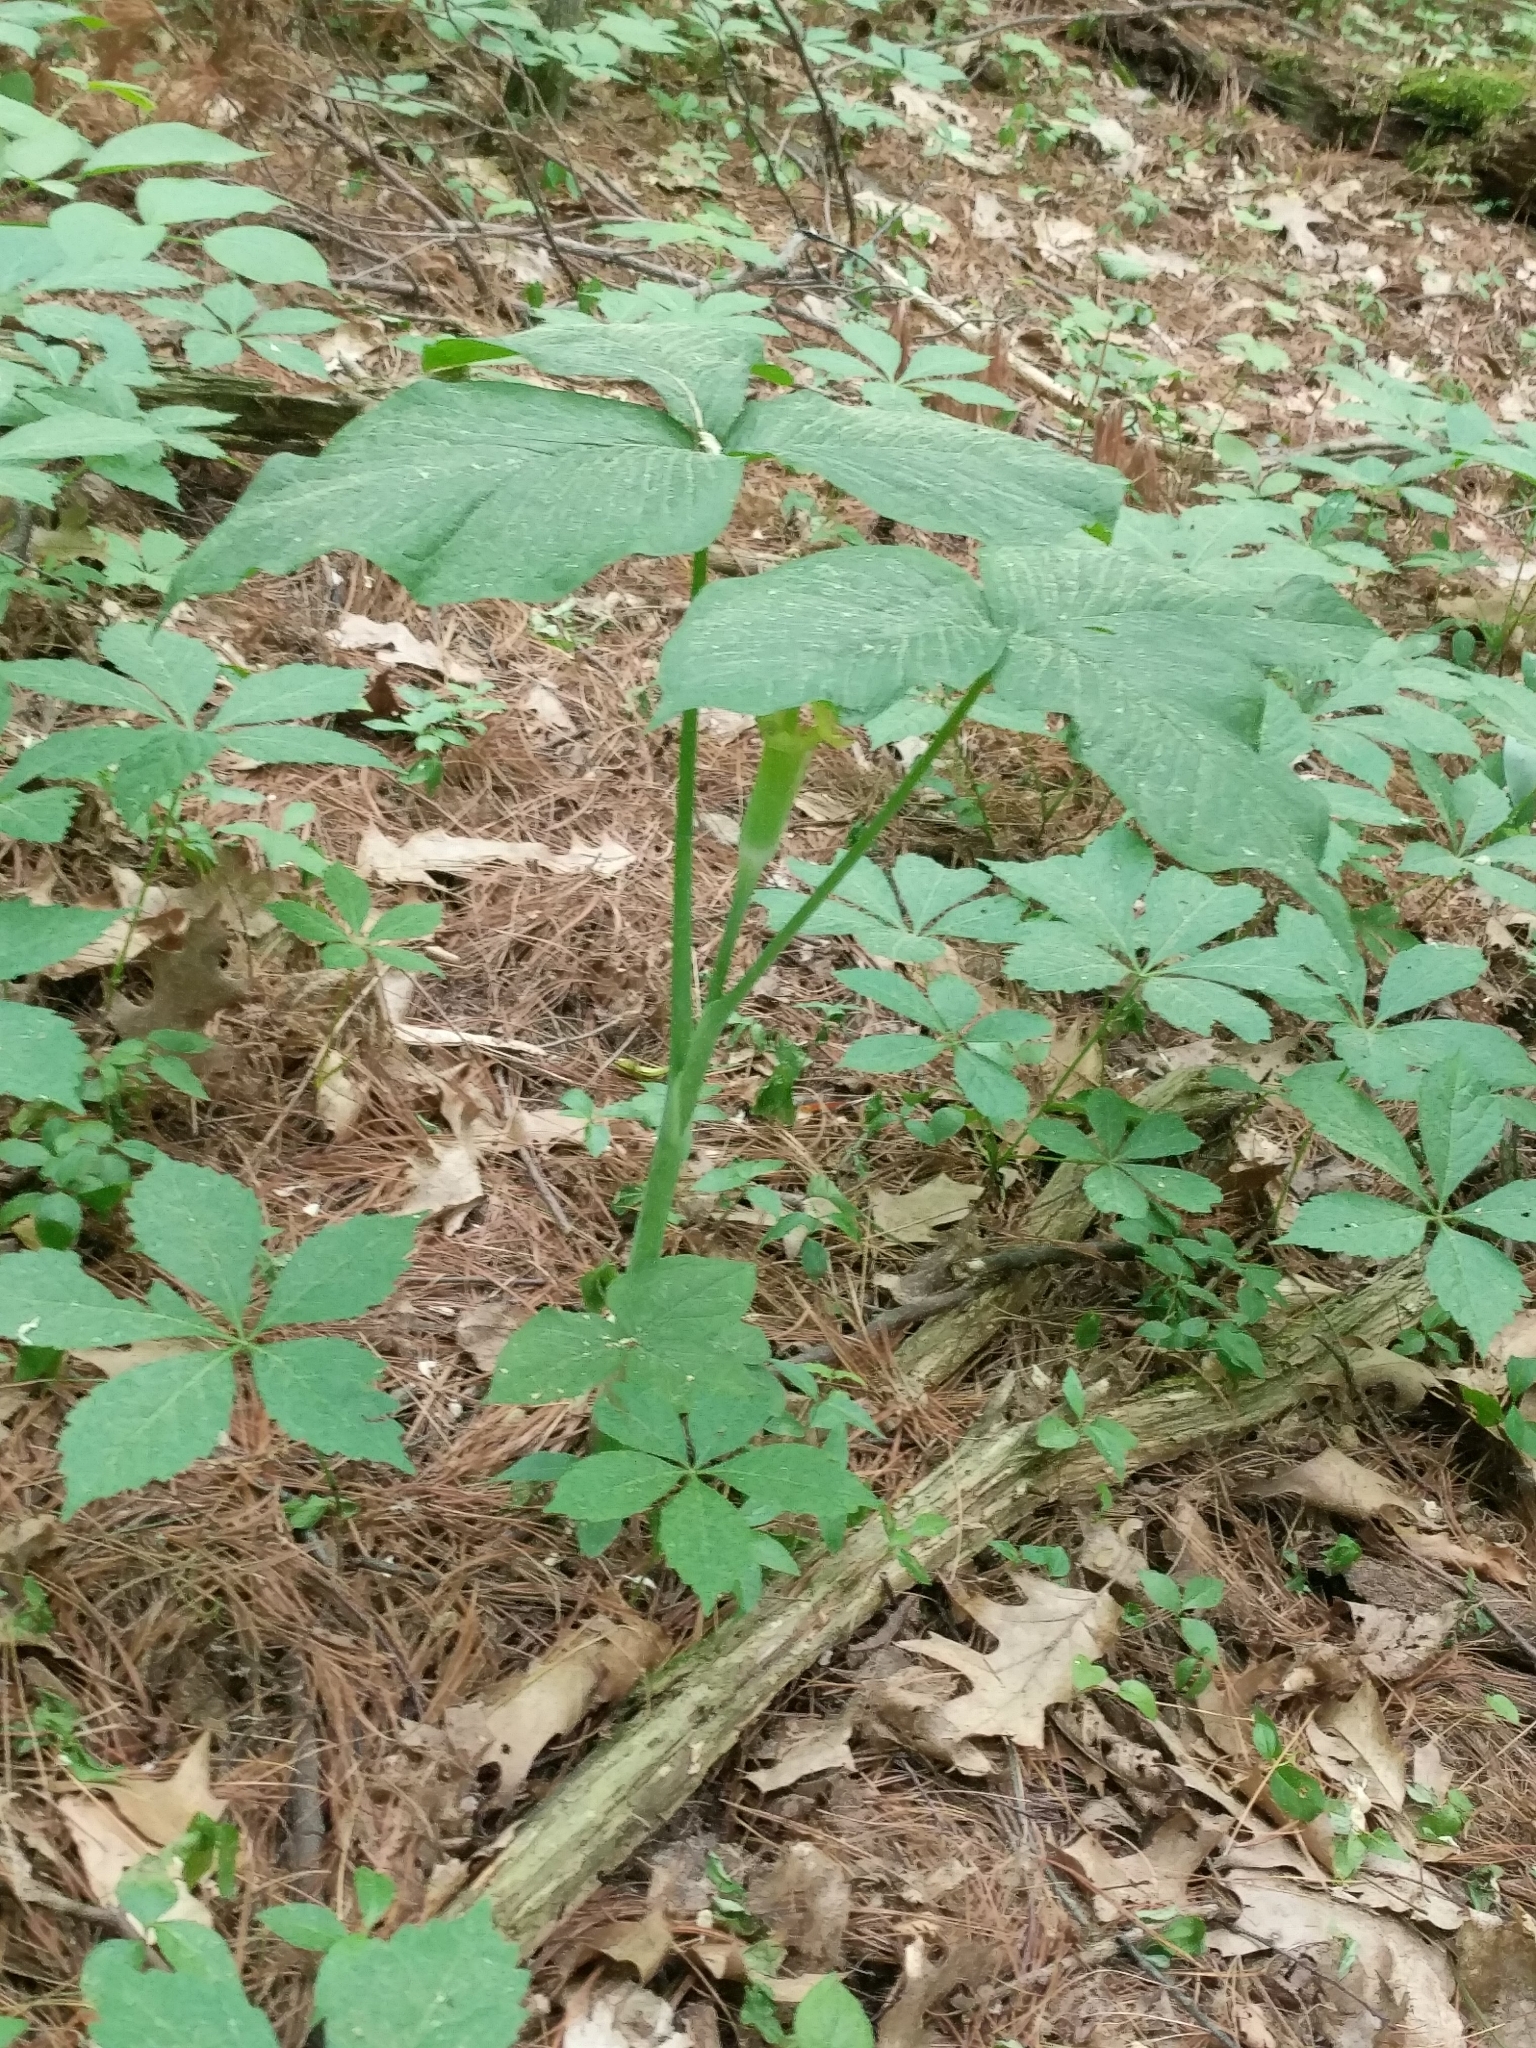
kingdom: Plantae
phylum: Tracheophyta
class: Liliopsida
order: Alismatales
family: Araceae
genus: Arisaema
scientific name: Arisaema triphyllum
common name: Jack-in-the-pulpit
